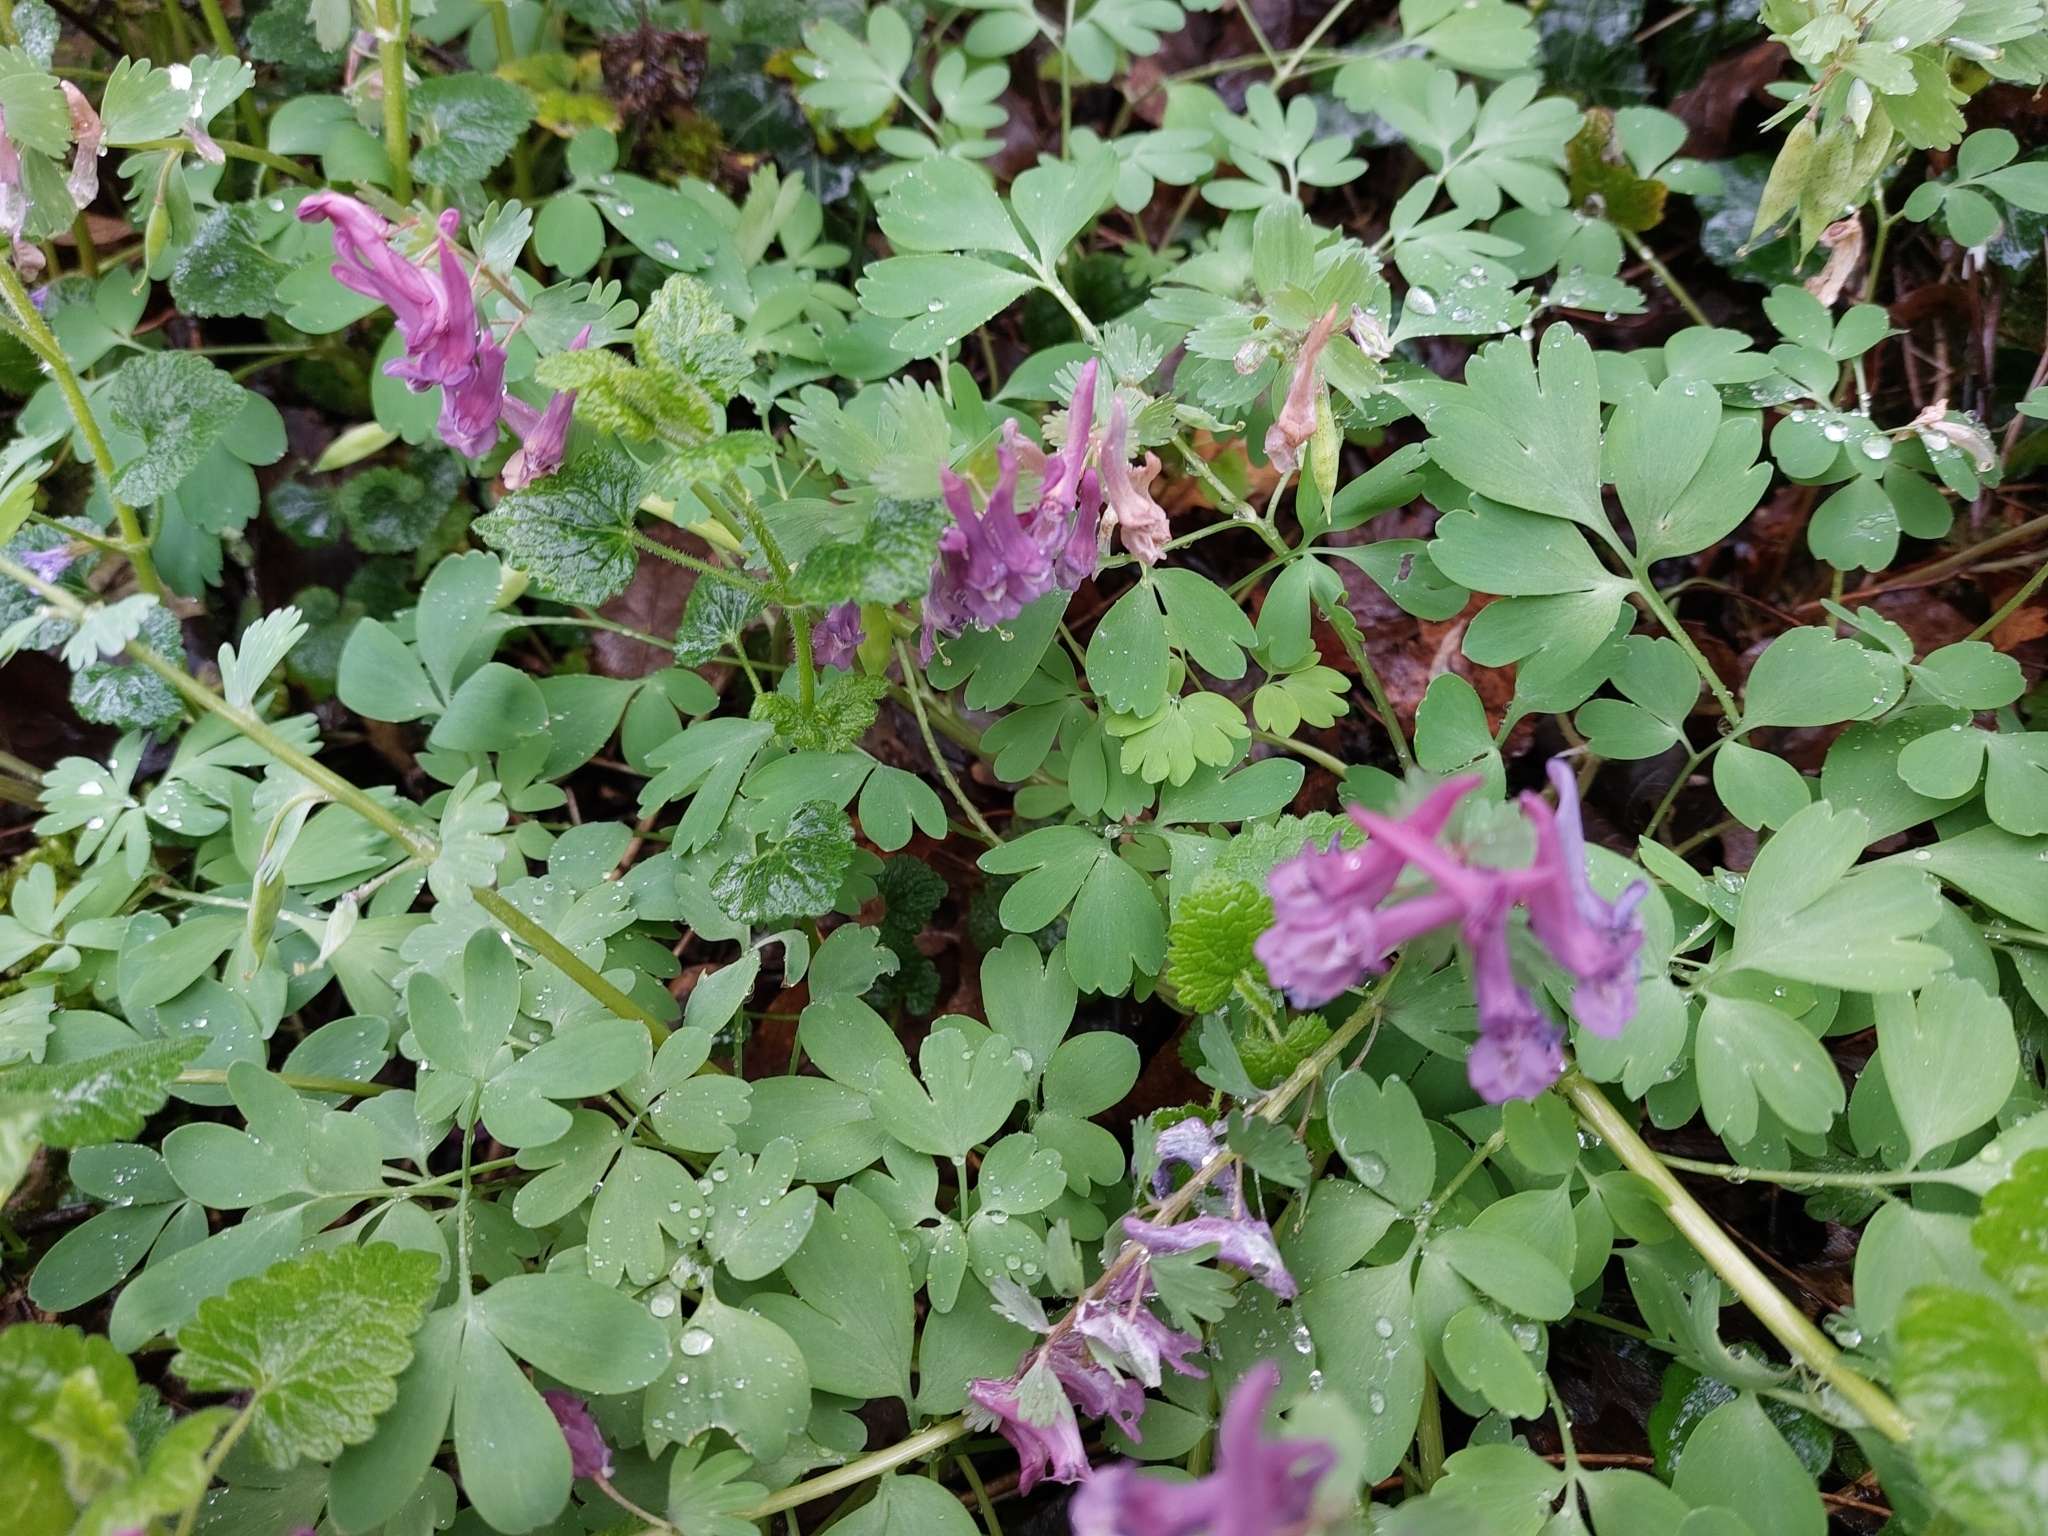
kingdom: Plantae
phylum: Tracheophyta
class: Magnoliopsida
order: Ranunculales
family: Papaveraceae
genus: Corydalis
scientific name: Corydalis solida
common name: Bird-in-a-bush
